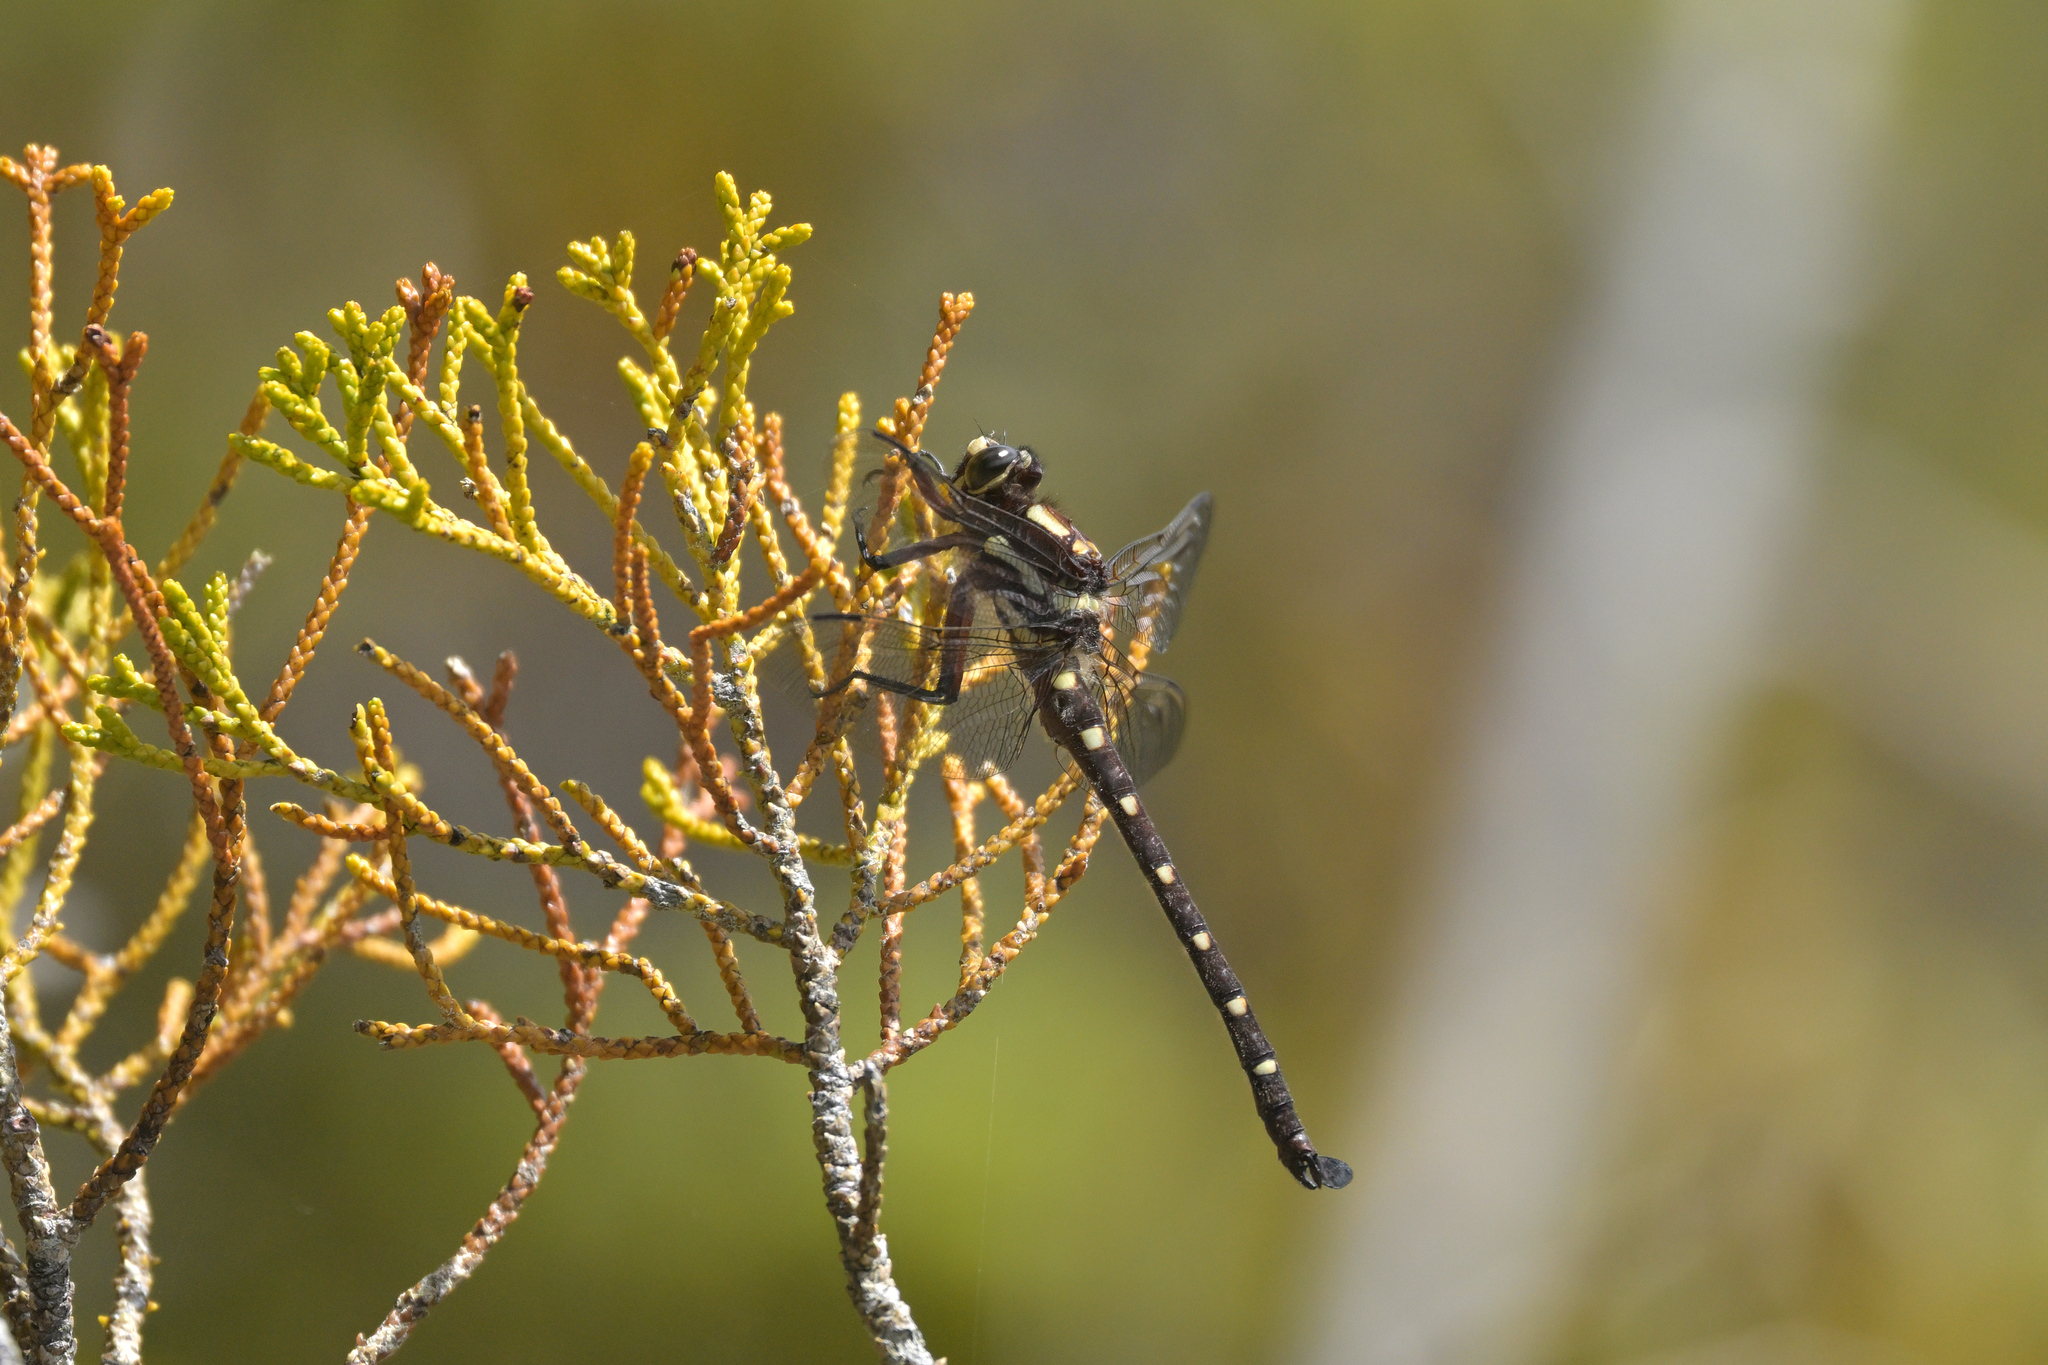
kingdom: Animalia
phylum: Arthropoda
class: Insecta
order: Odonata
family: Petaluridae
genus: Uropetala
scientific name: Uropetala carovei
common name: Bush giant dragonfly
